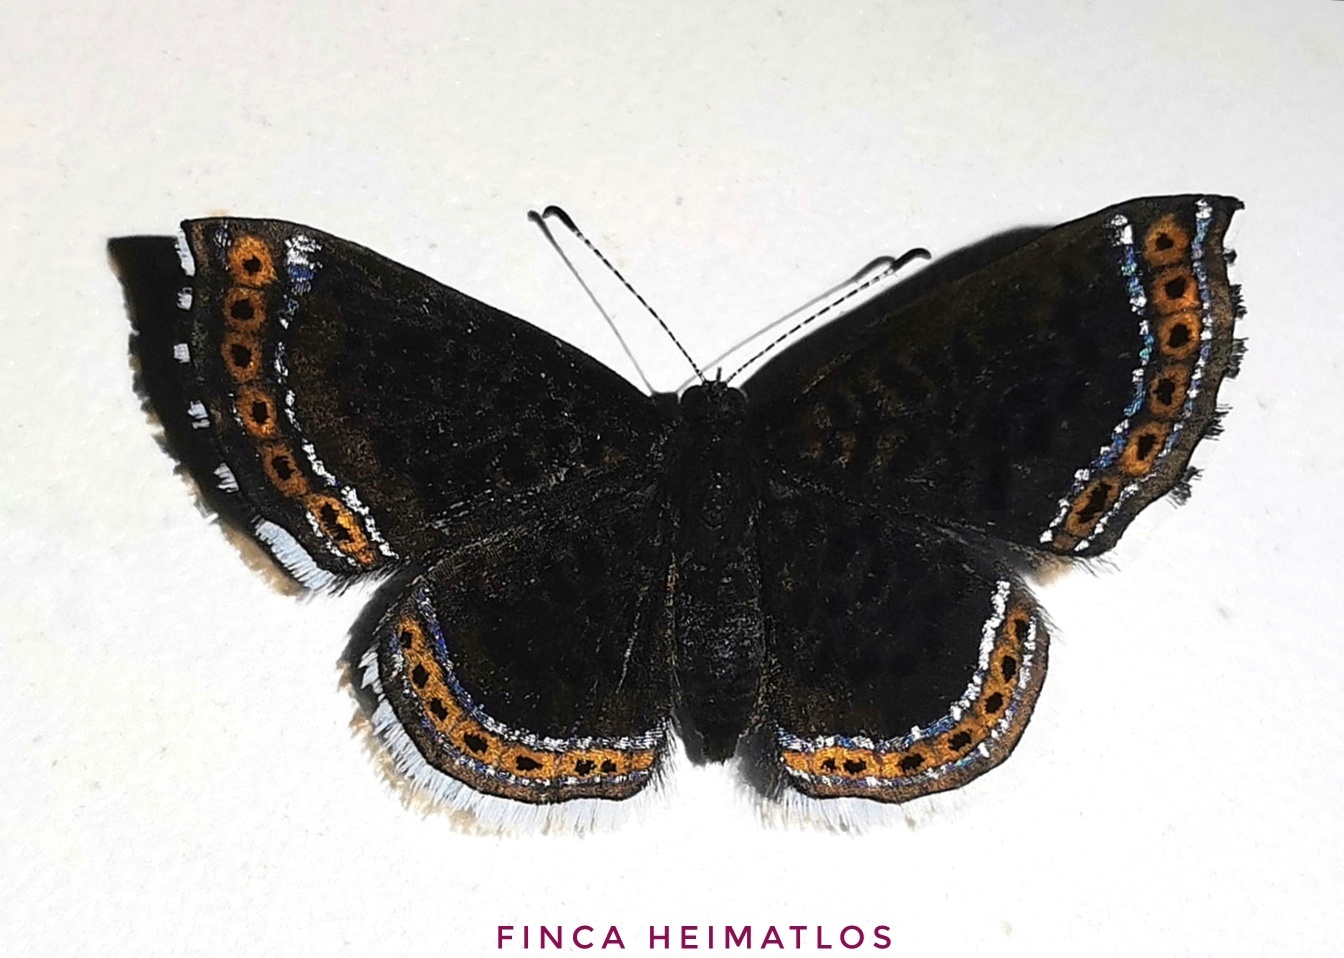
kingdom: Animalia
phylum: Arthropoda
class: Insecta
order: Lepidoptera
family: Riodinidae
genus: Detritivora
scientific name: Detritivora
